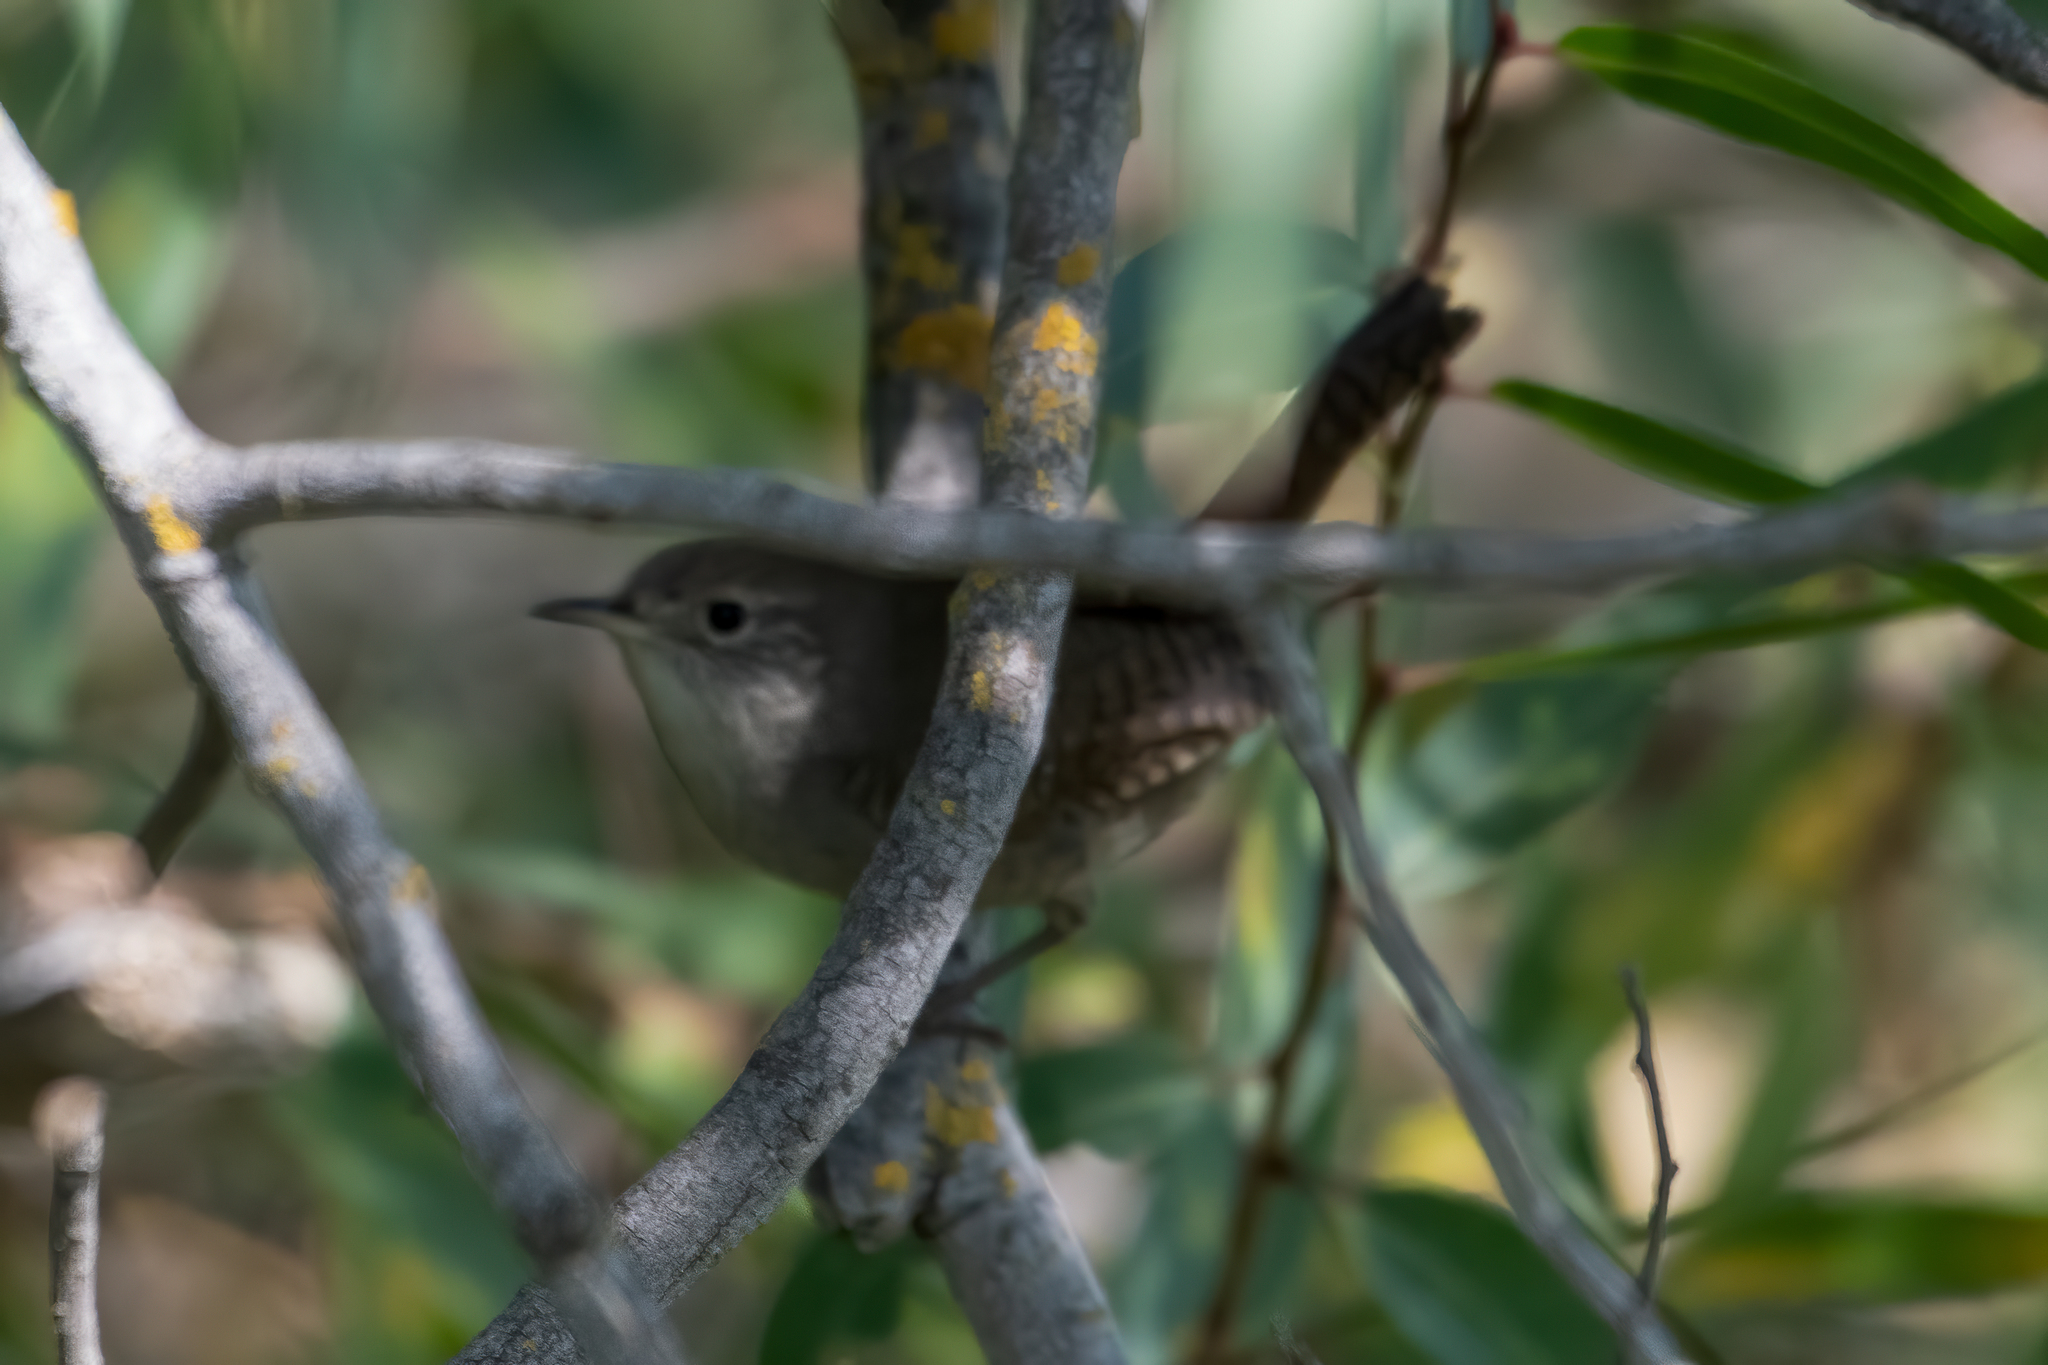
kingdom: Animalia
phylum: Chordata
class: Aves
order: Passeriformes
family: Troglodytidae
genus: Troglodytes
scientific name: Troglodytes aedon
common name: House wren
